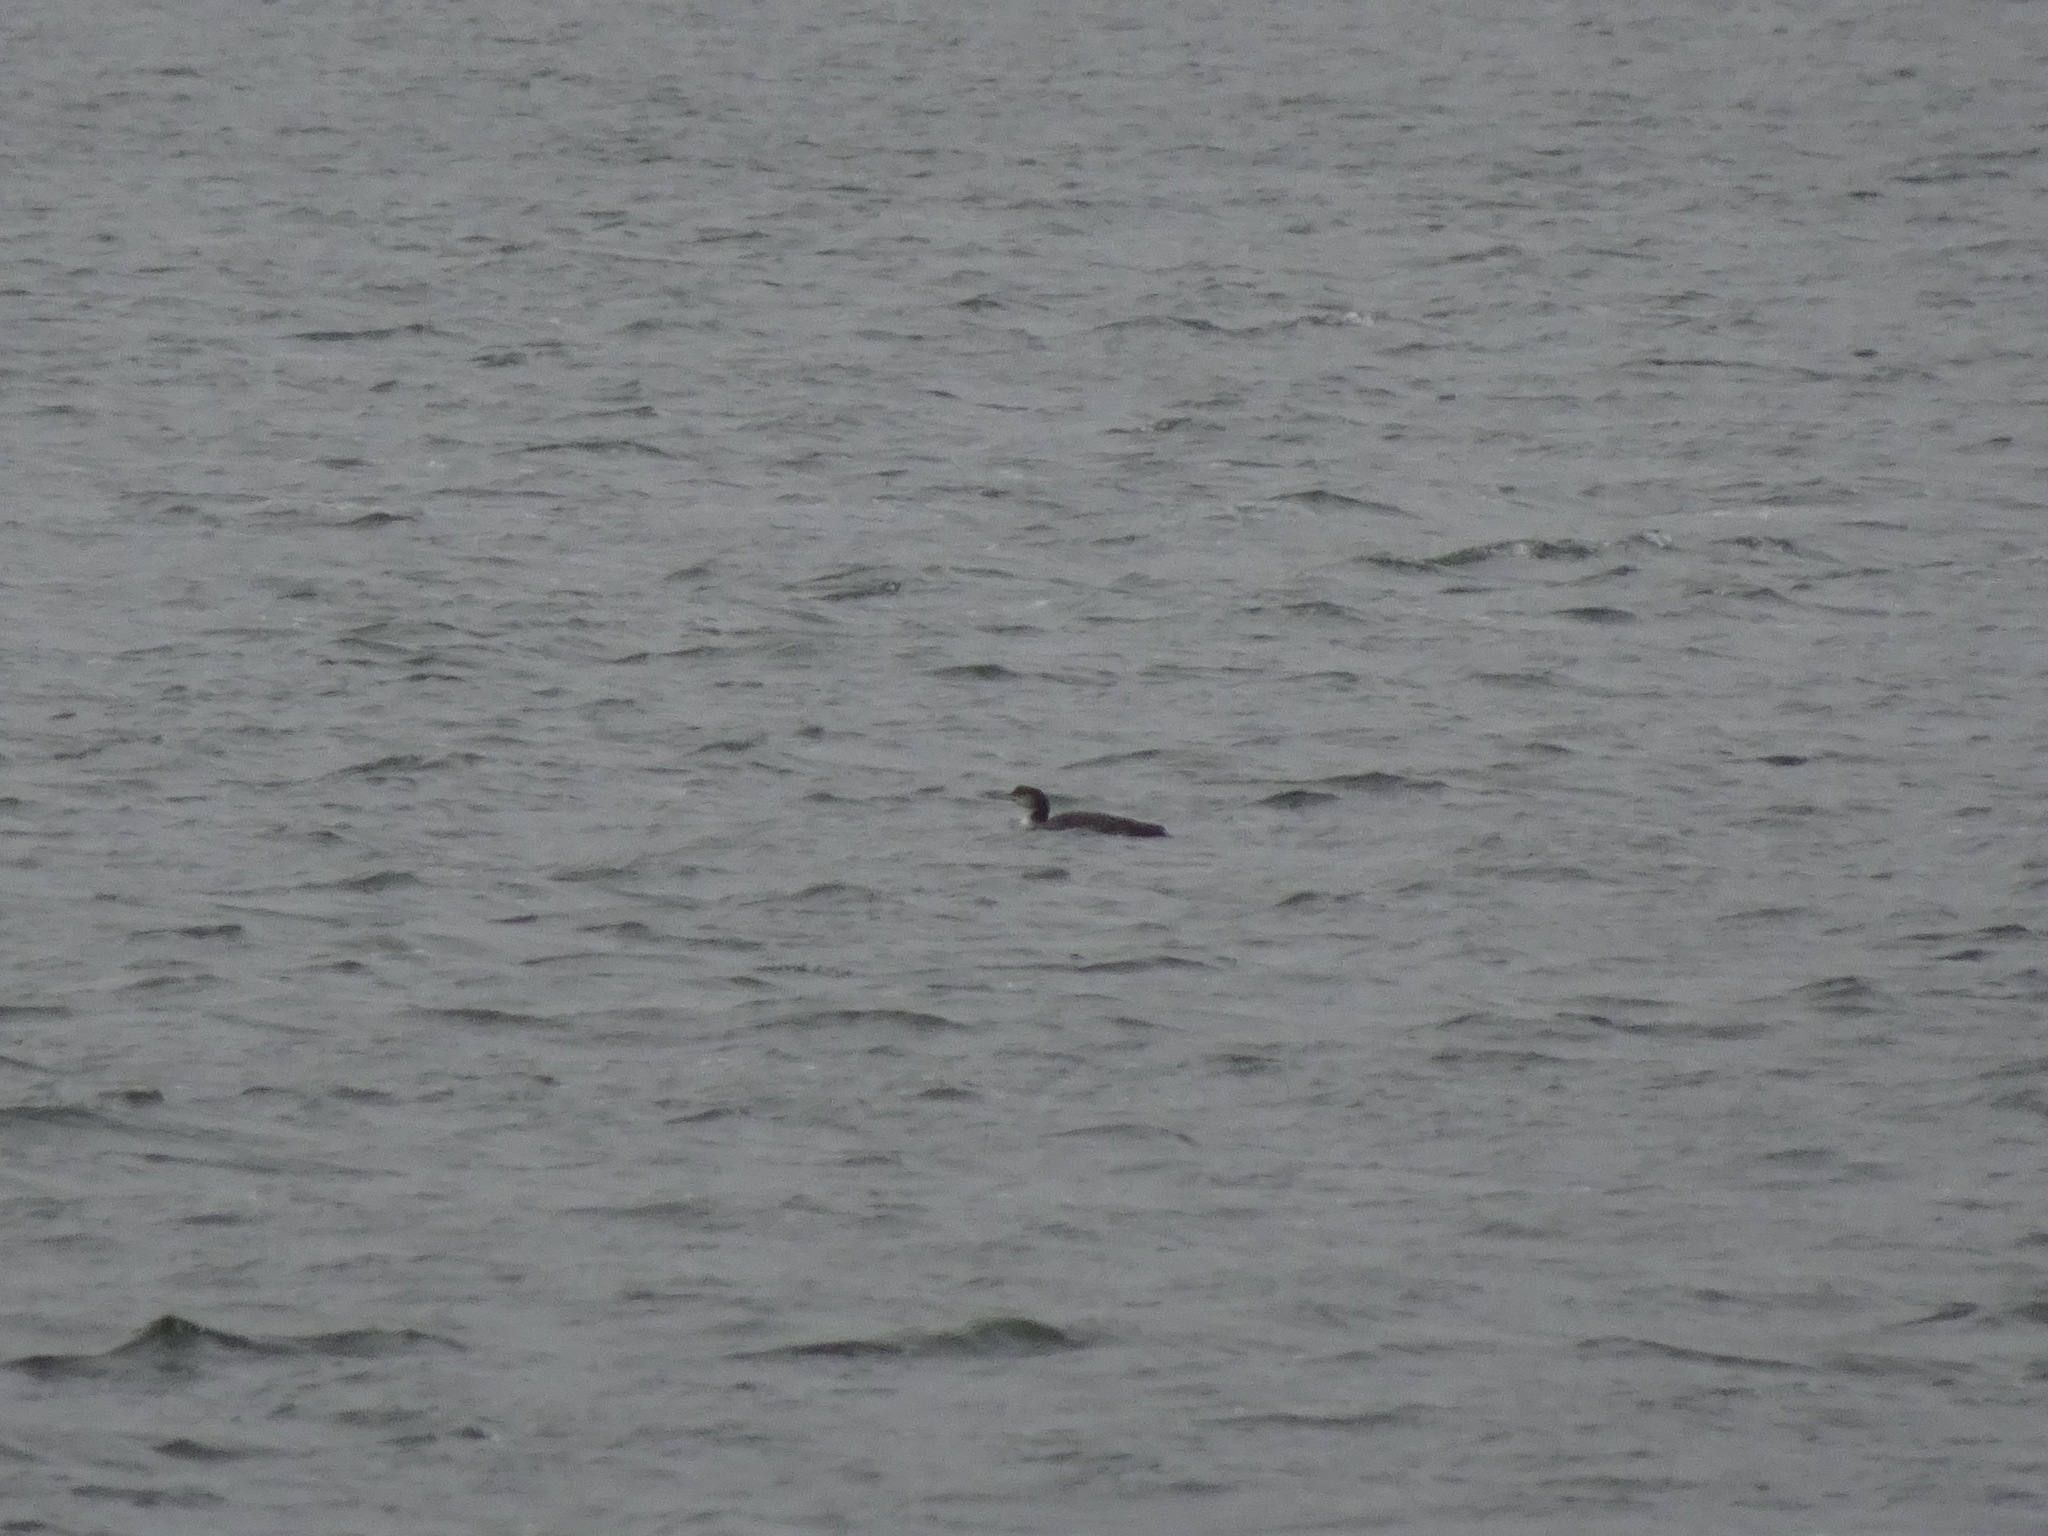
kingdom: Animalia
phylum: Chordata
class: Aves
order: Gaviiformes
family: Gaviidae
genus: Gavia
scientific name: Gavia immer
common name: Common loon
